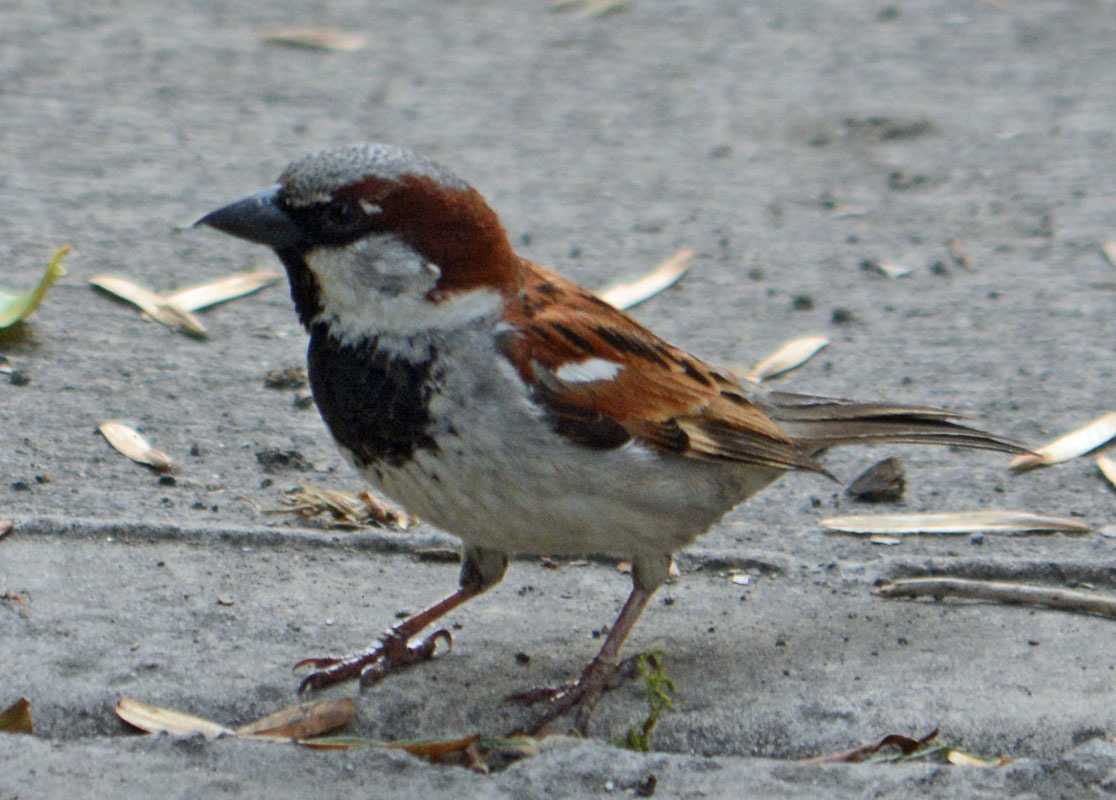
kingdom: Animalia
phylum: Chordata
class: Aves
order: Passeriformes
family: Passeridae
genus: Passer
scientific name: Passer domesticus
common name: House sparrow
